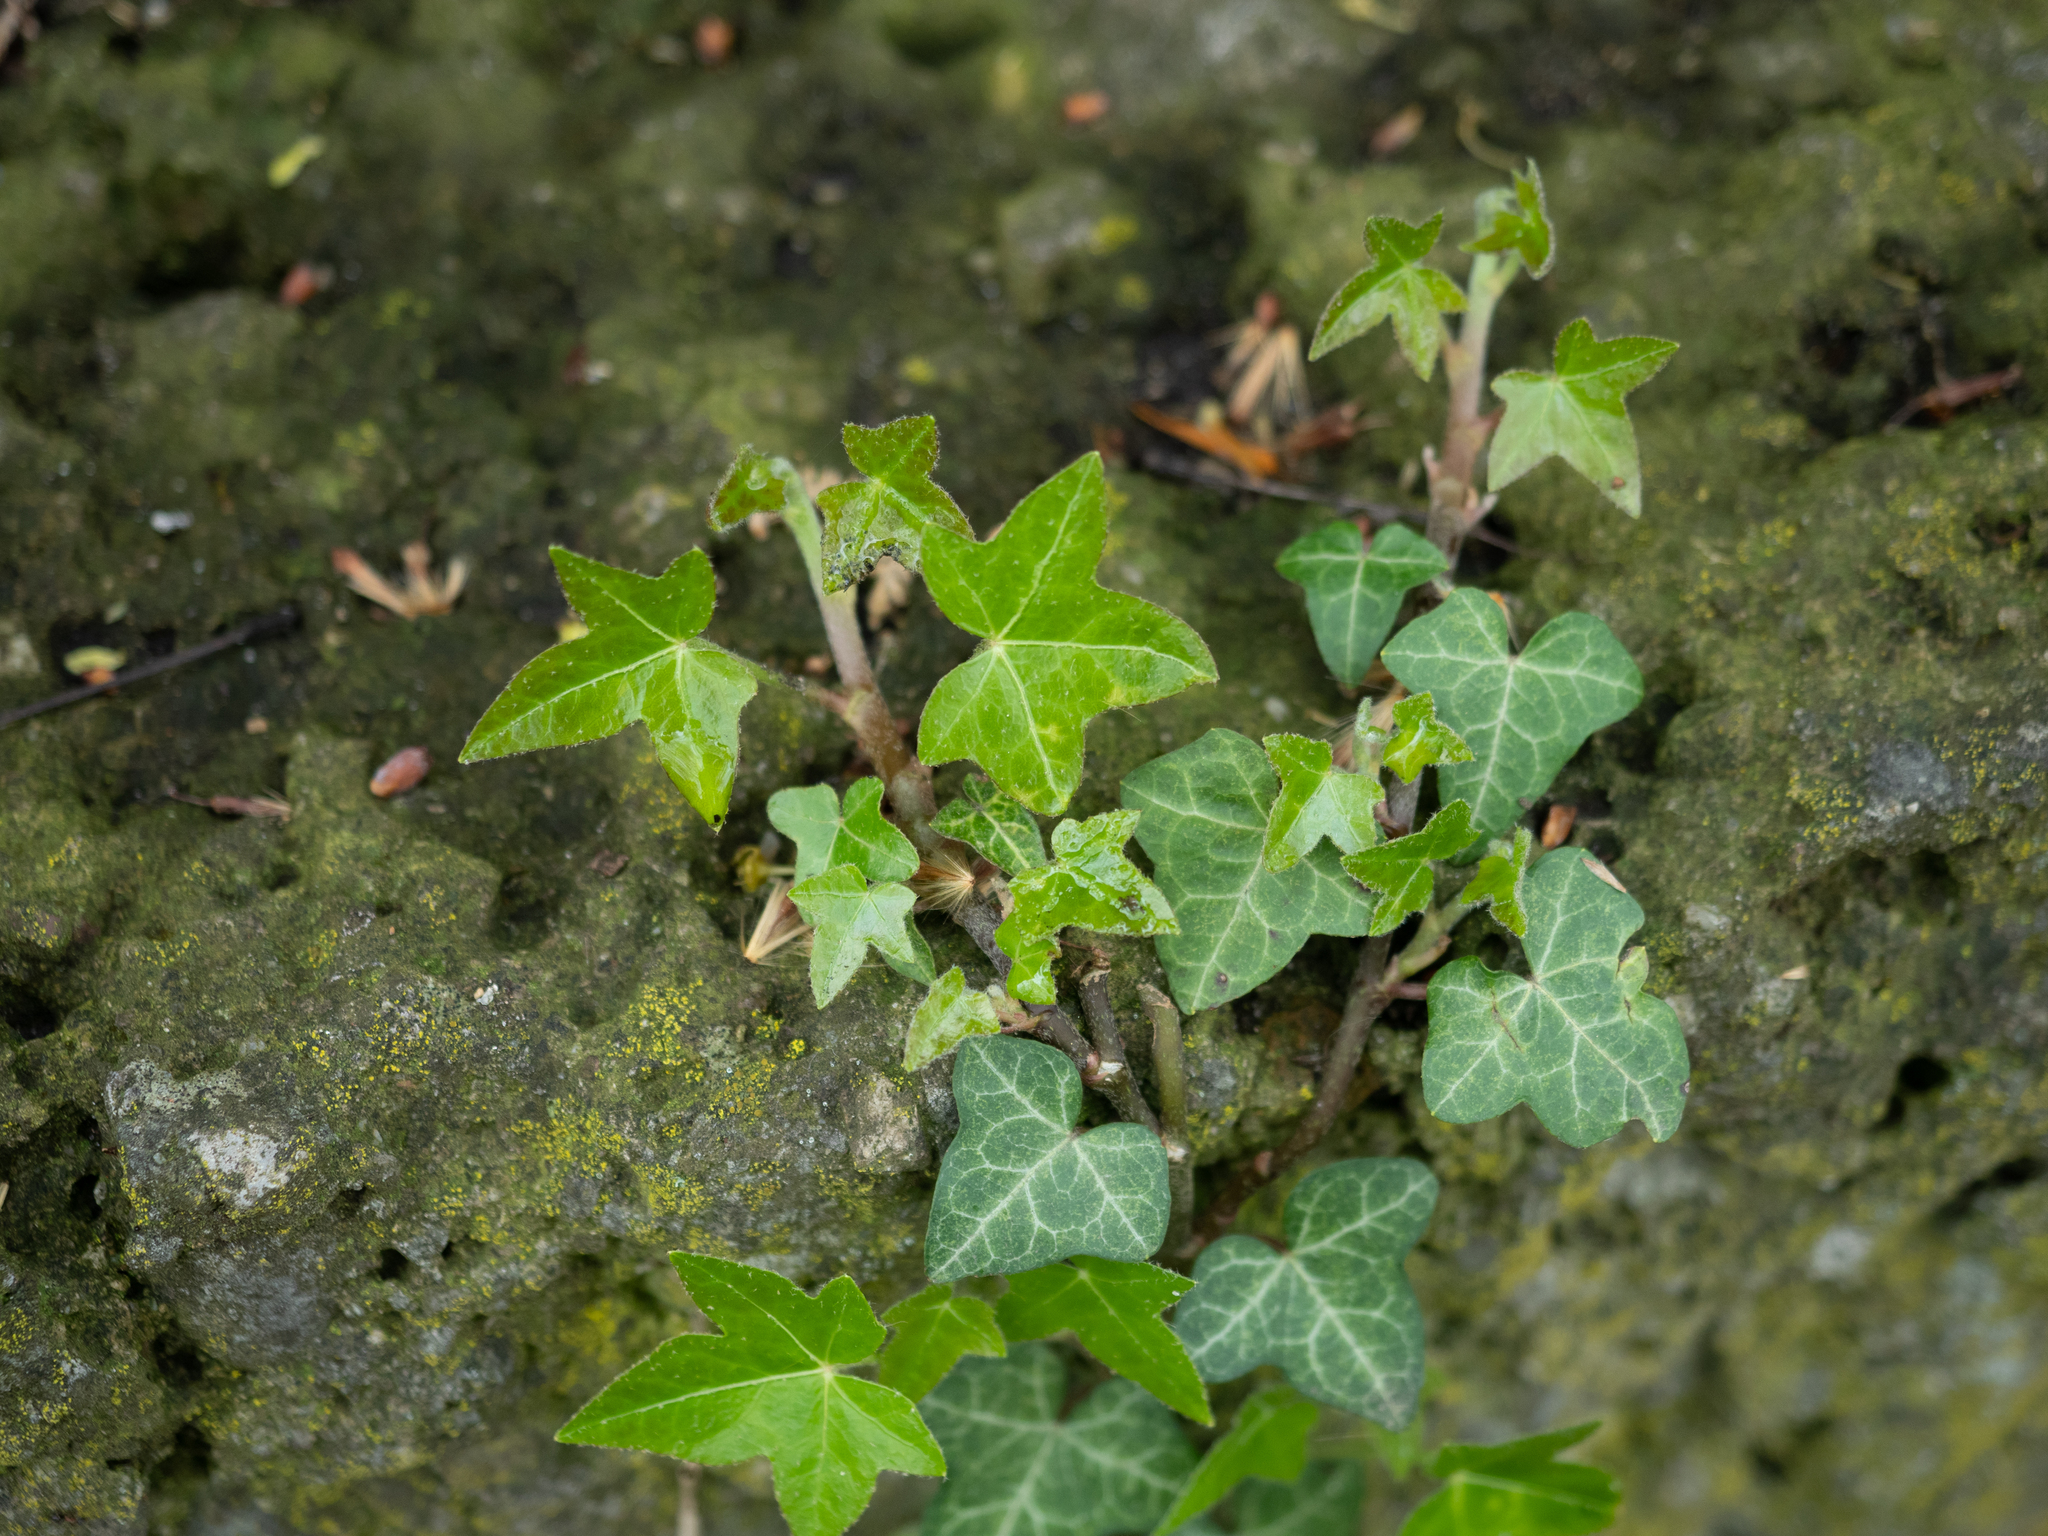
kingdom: Plantae
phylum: Tracheophyta
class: Magnoliopsida
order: Apiales
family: Araliaceae
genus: Hedera
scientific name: Hedera helix
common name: Ivy
